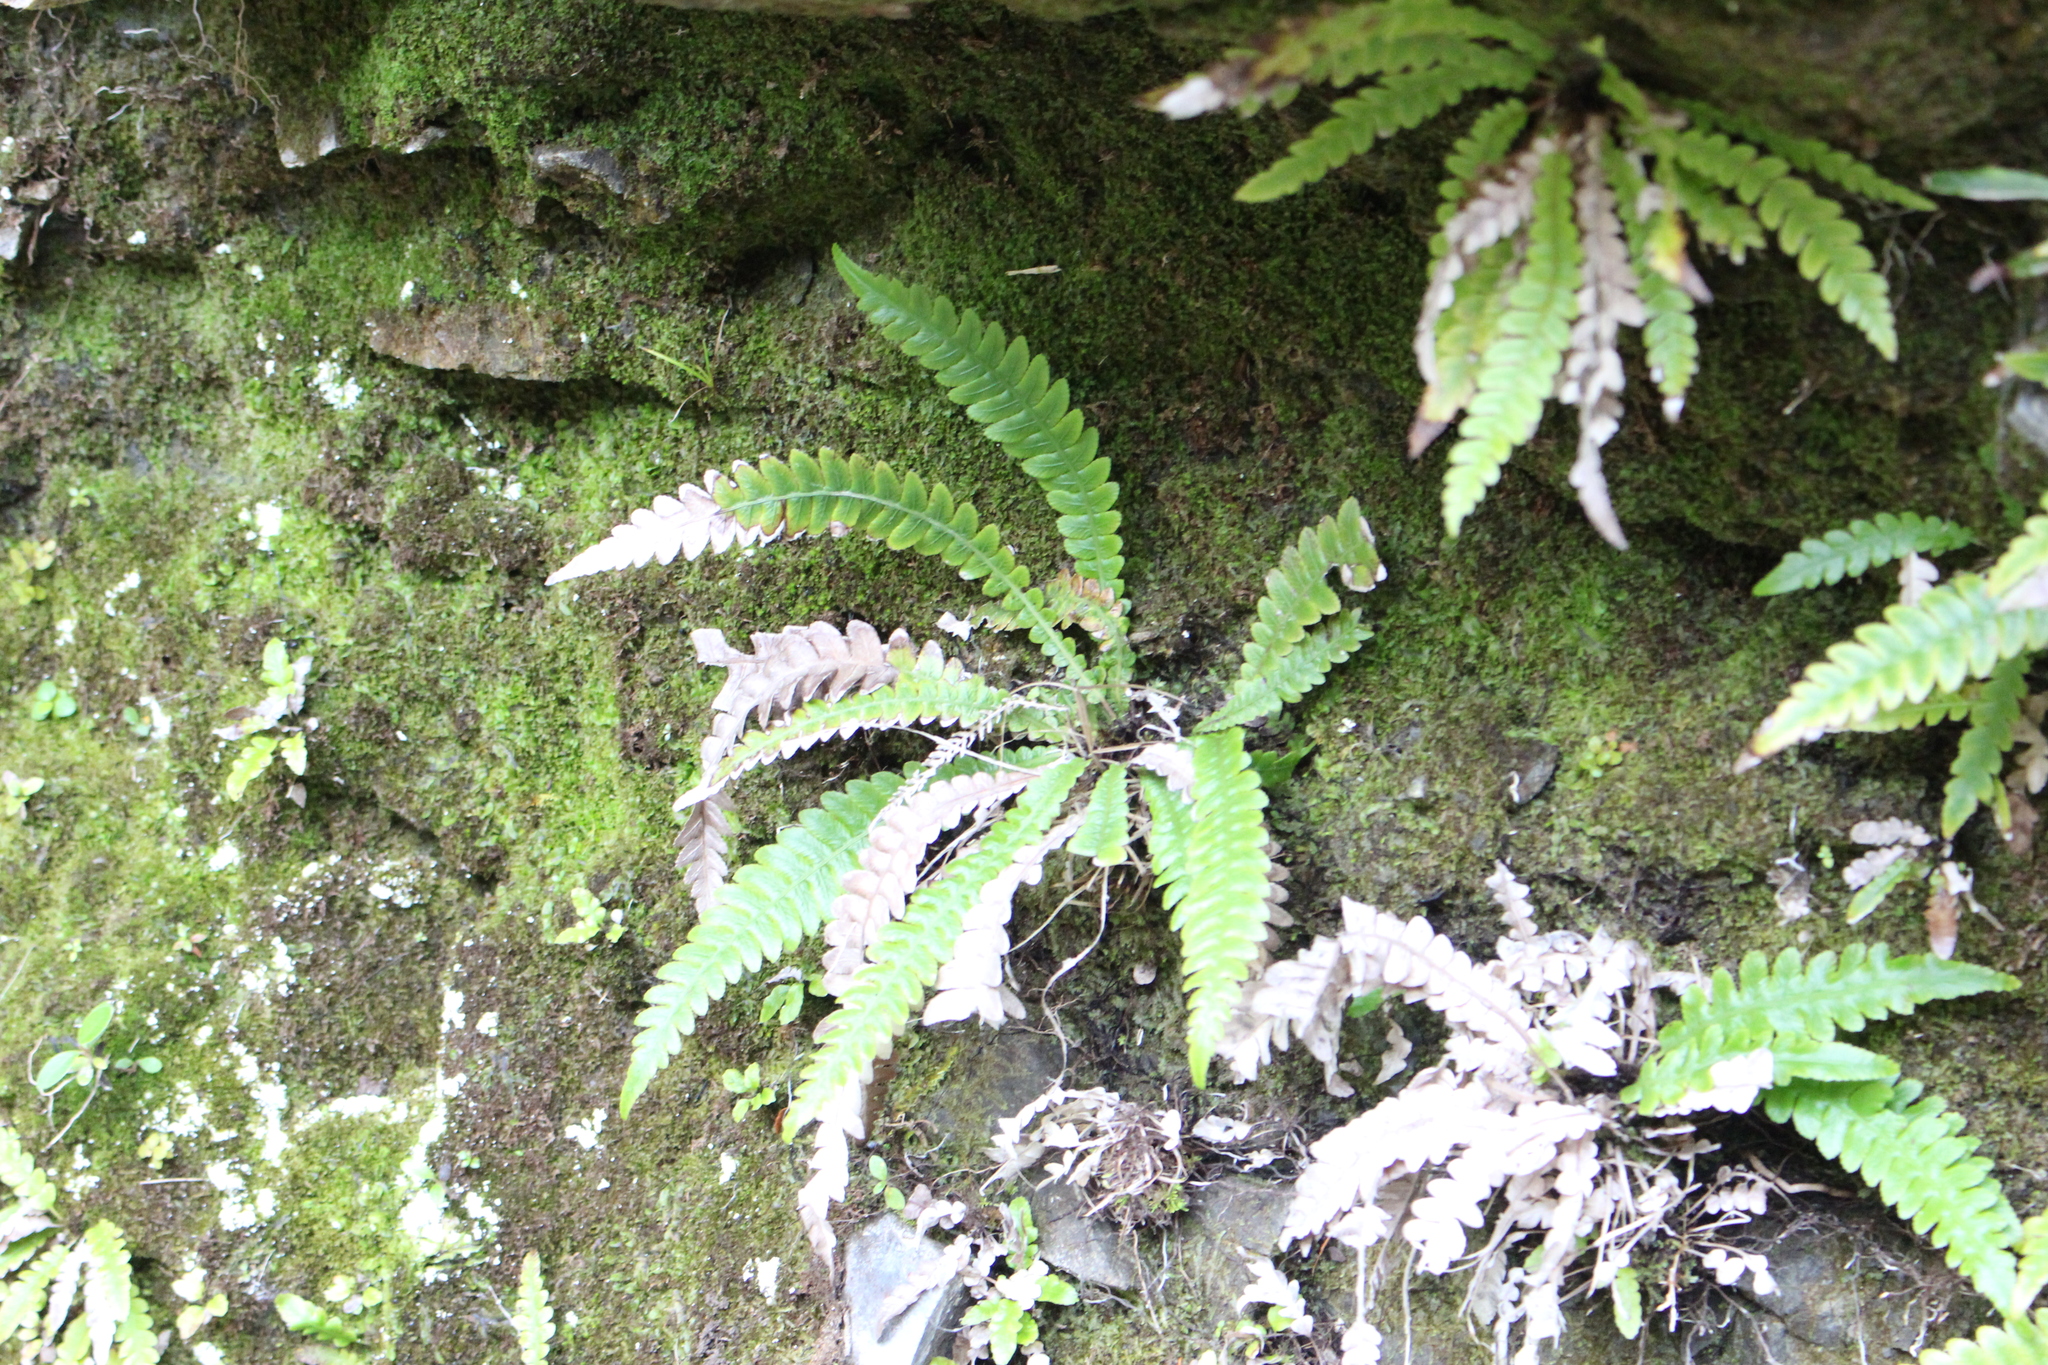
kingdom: Plantae
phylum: Tracheophyta
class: Polypodiopsida
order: Polypodiales
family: Blechnaceae
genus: Austroblechnum
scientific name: Austroblechnum lanceolatum
